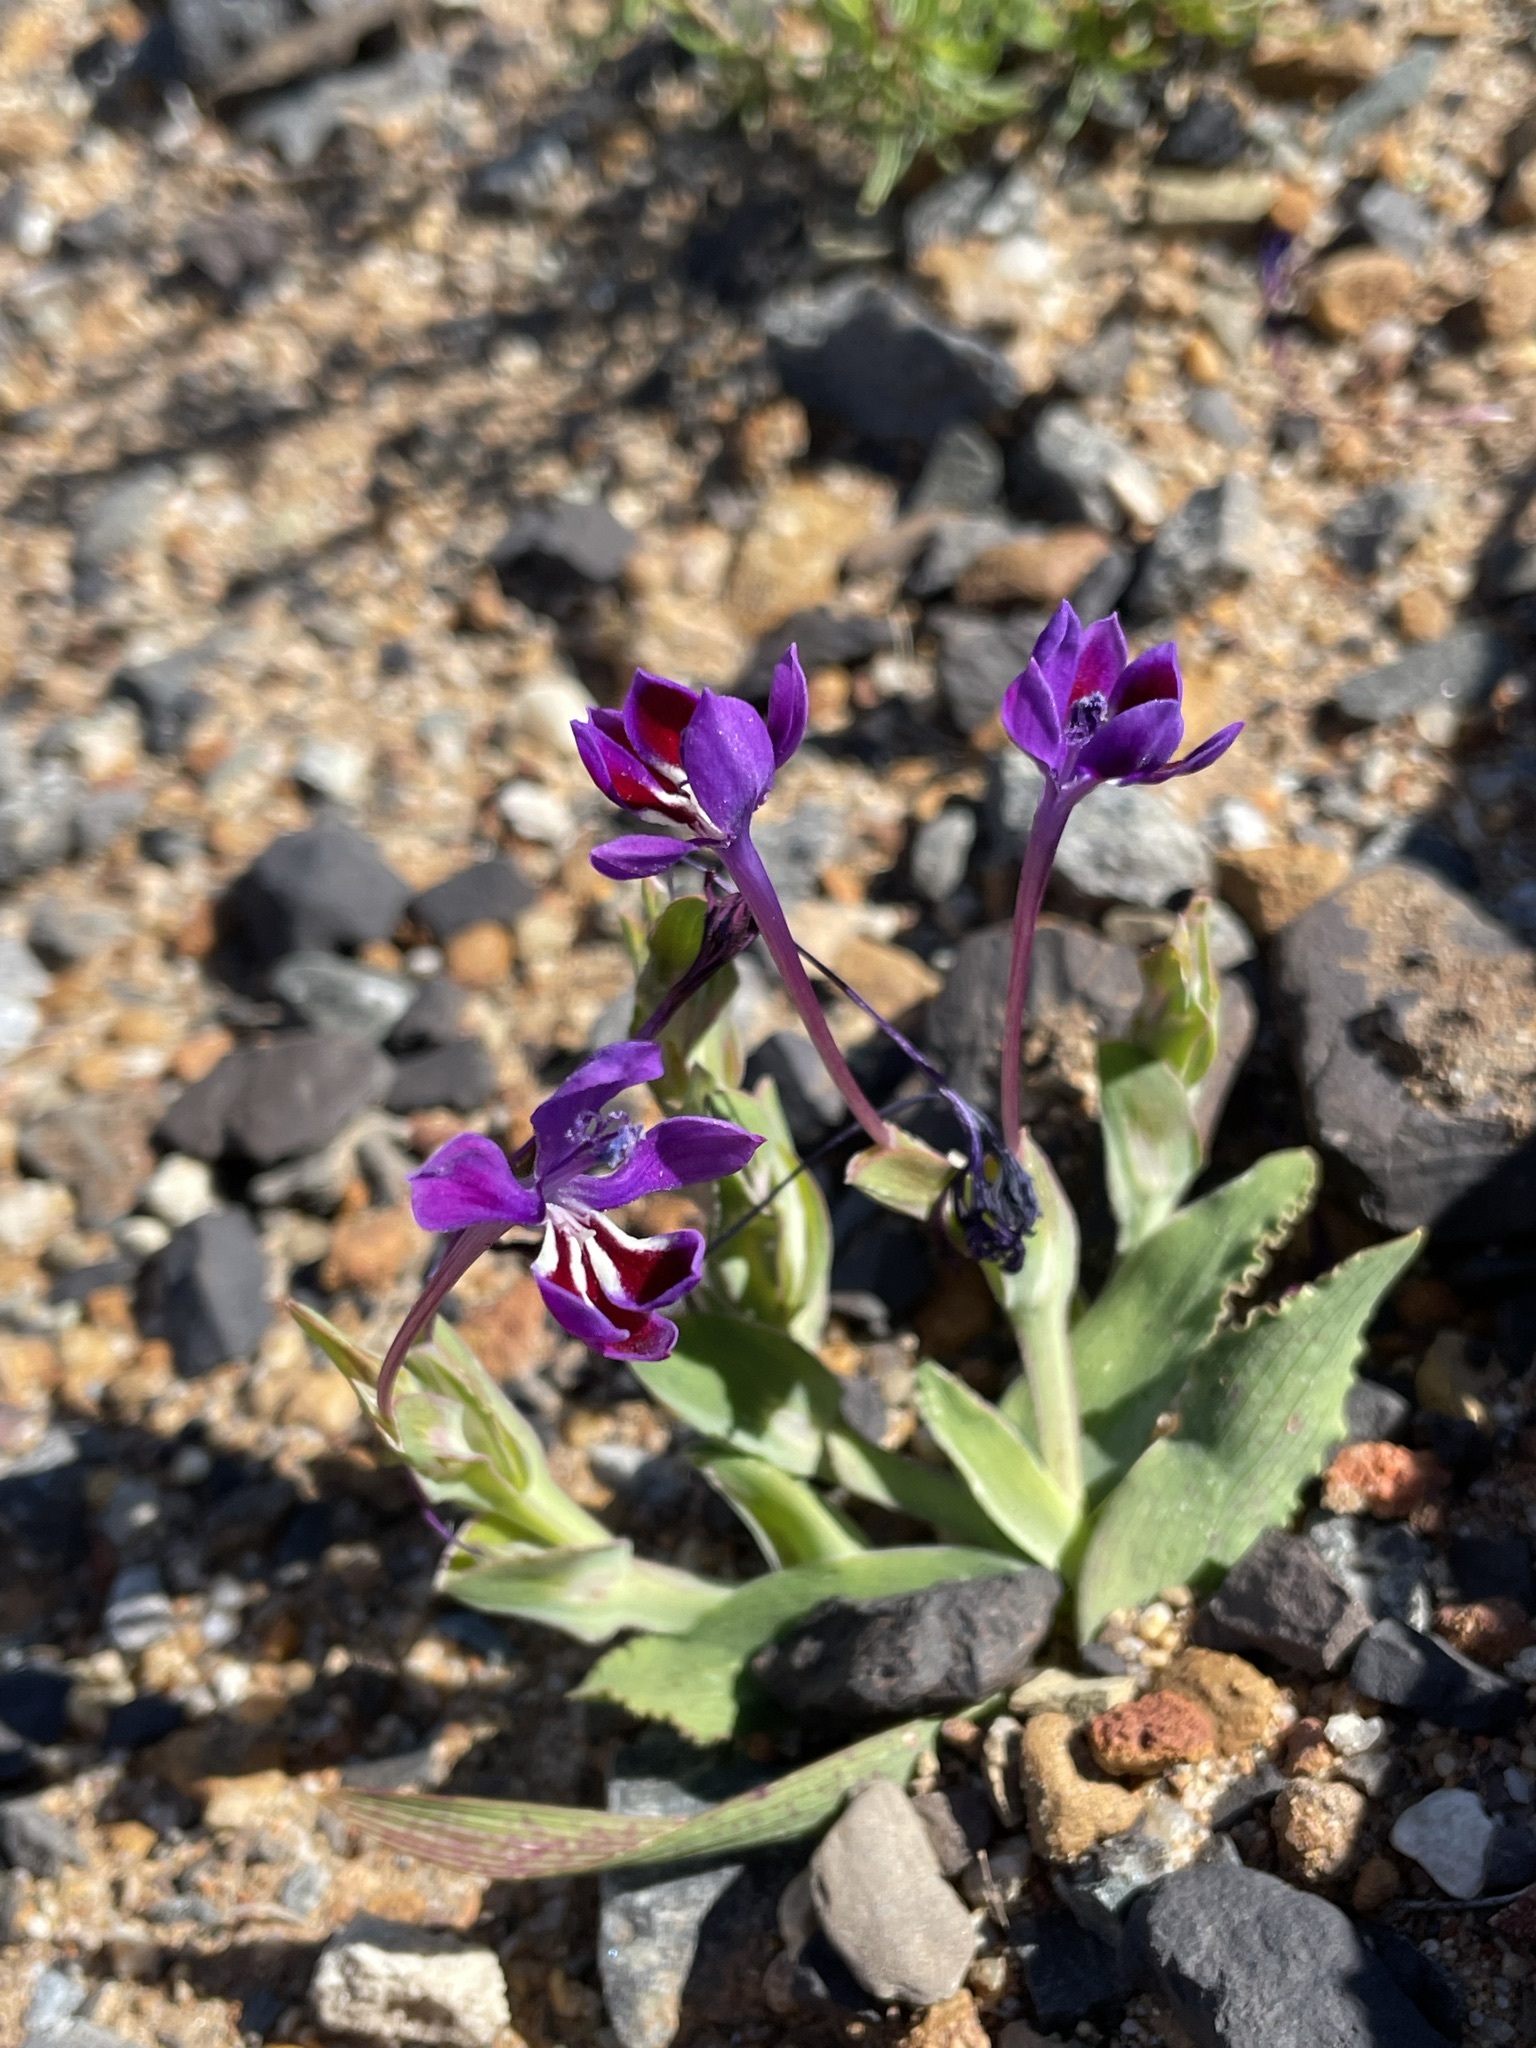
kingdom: Plantae
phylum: Tracheophyta
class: Liliopsida
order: Asparagales
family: Iridaceae
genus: Lapeirousia
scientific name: Lapeirousia jacquinii
